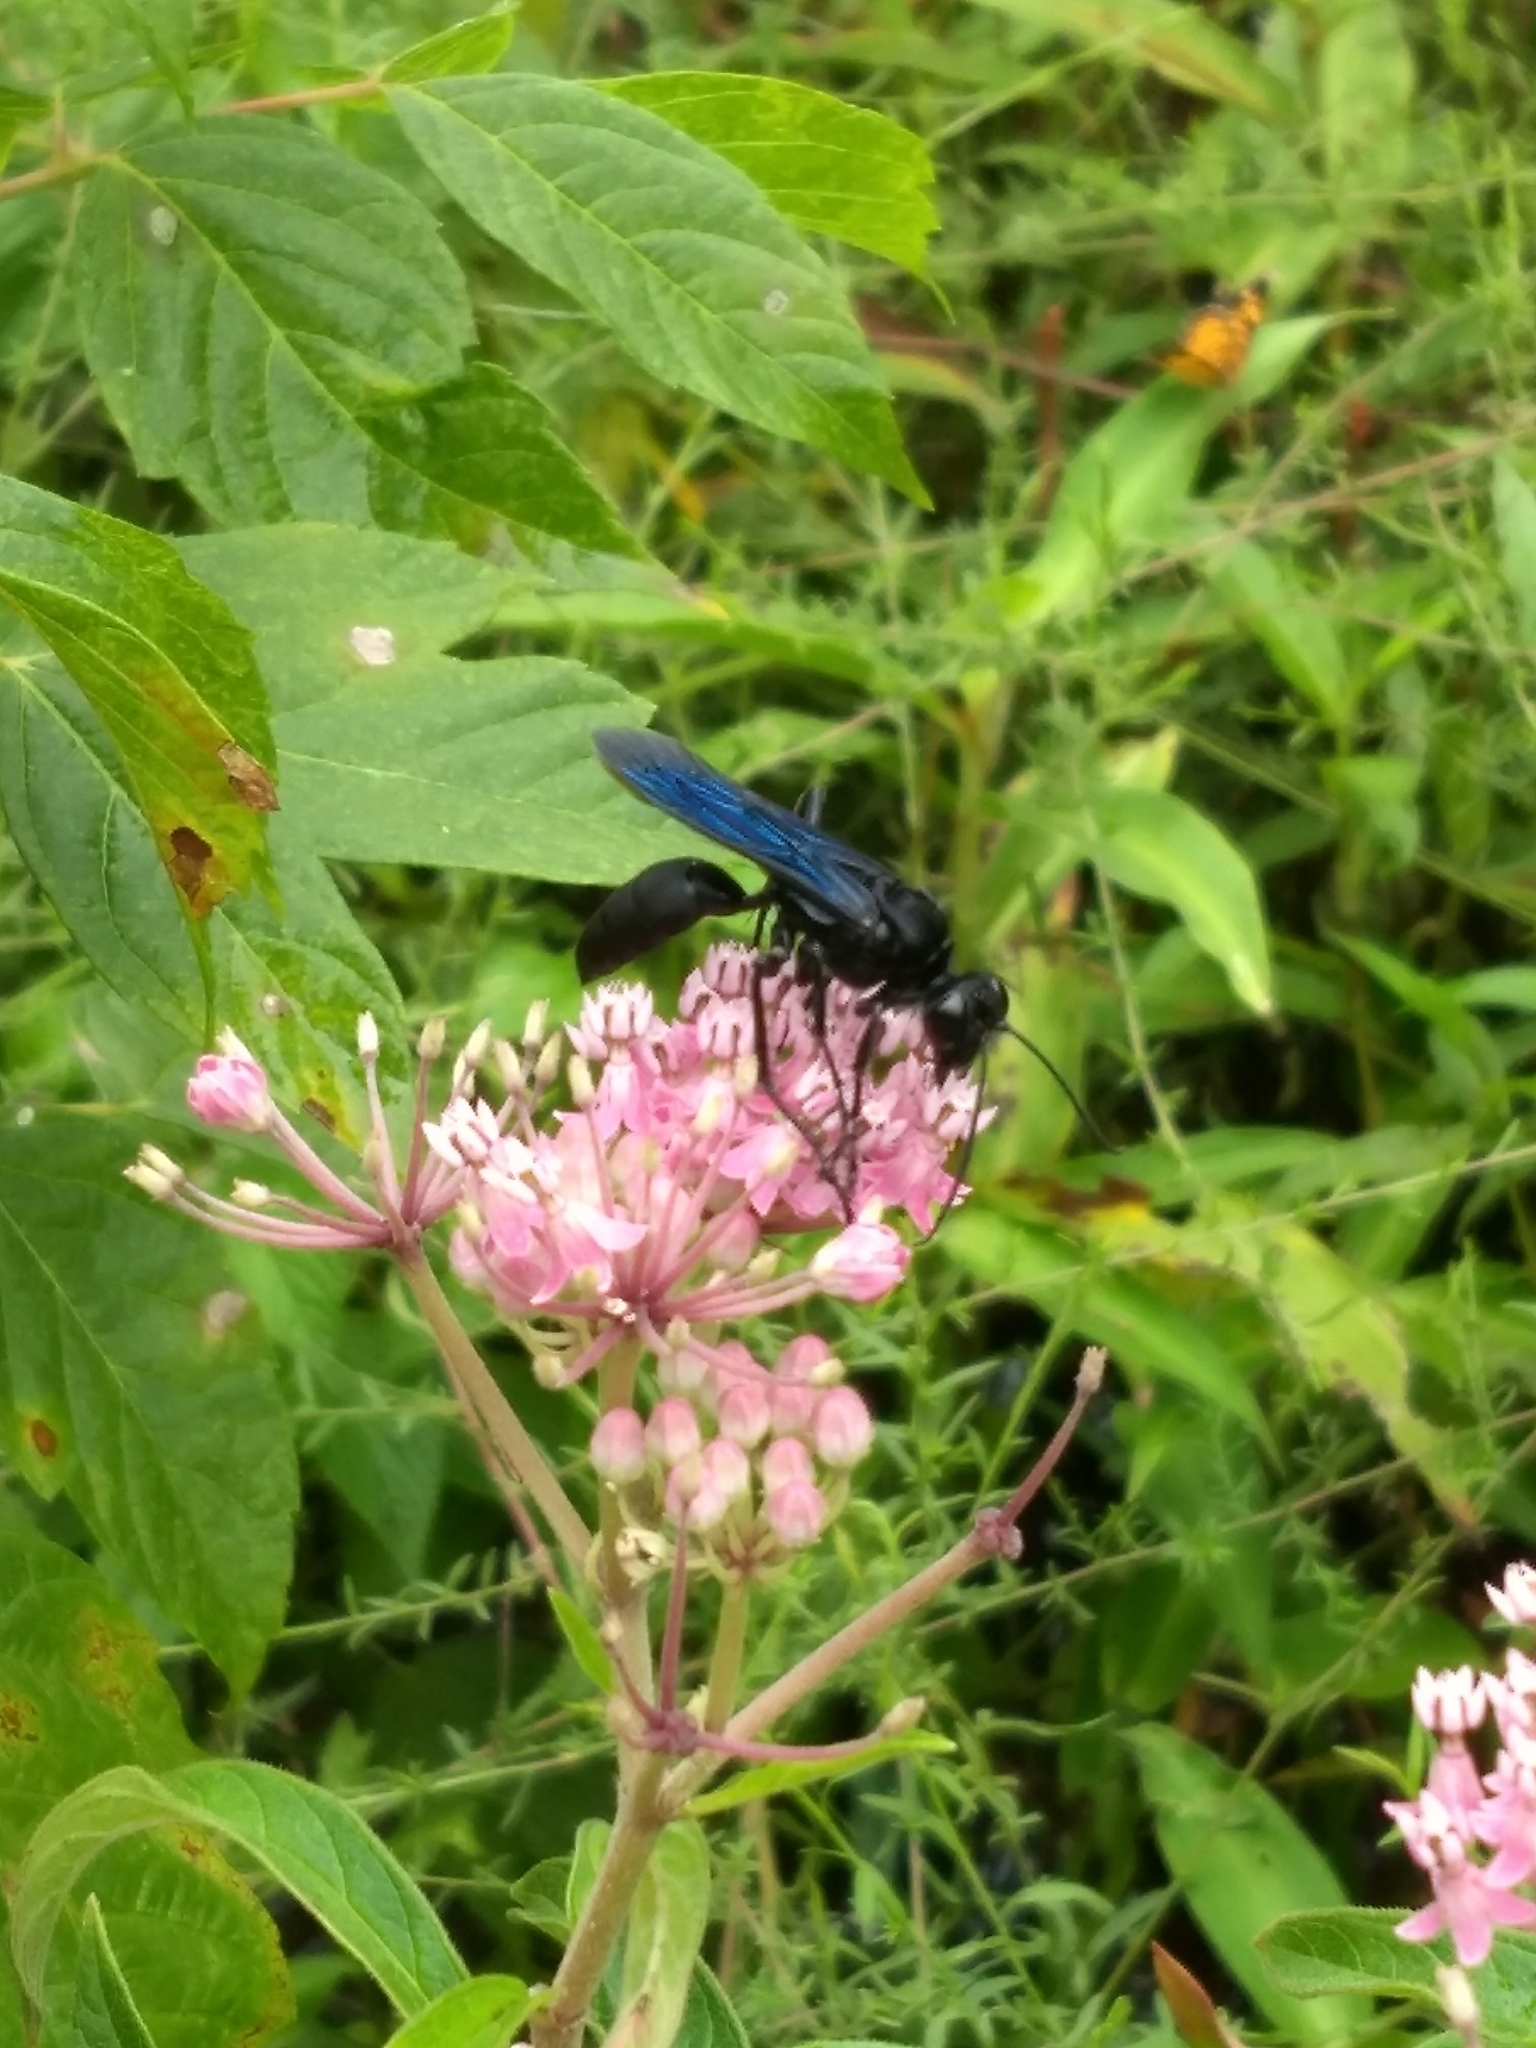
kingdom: Animalia
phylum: Arthropoda
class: Insecta
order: Hymenoptera
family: Sphecidae
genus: Sphex
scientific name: Sphex pensylvanicus
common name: Great black digger wasp
